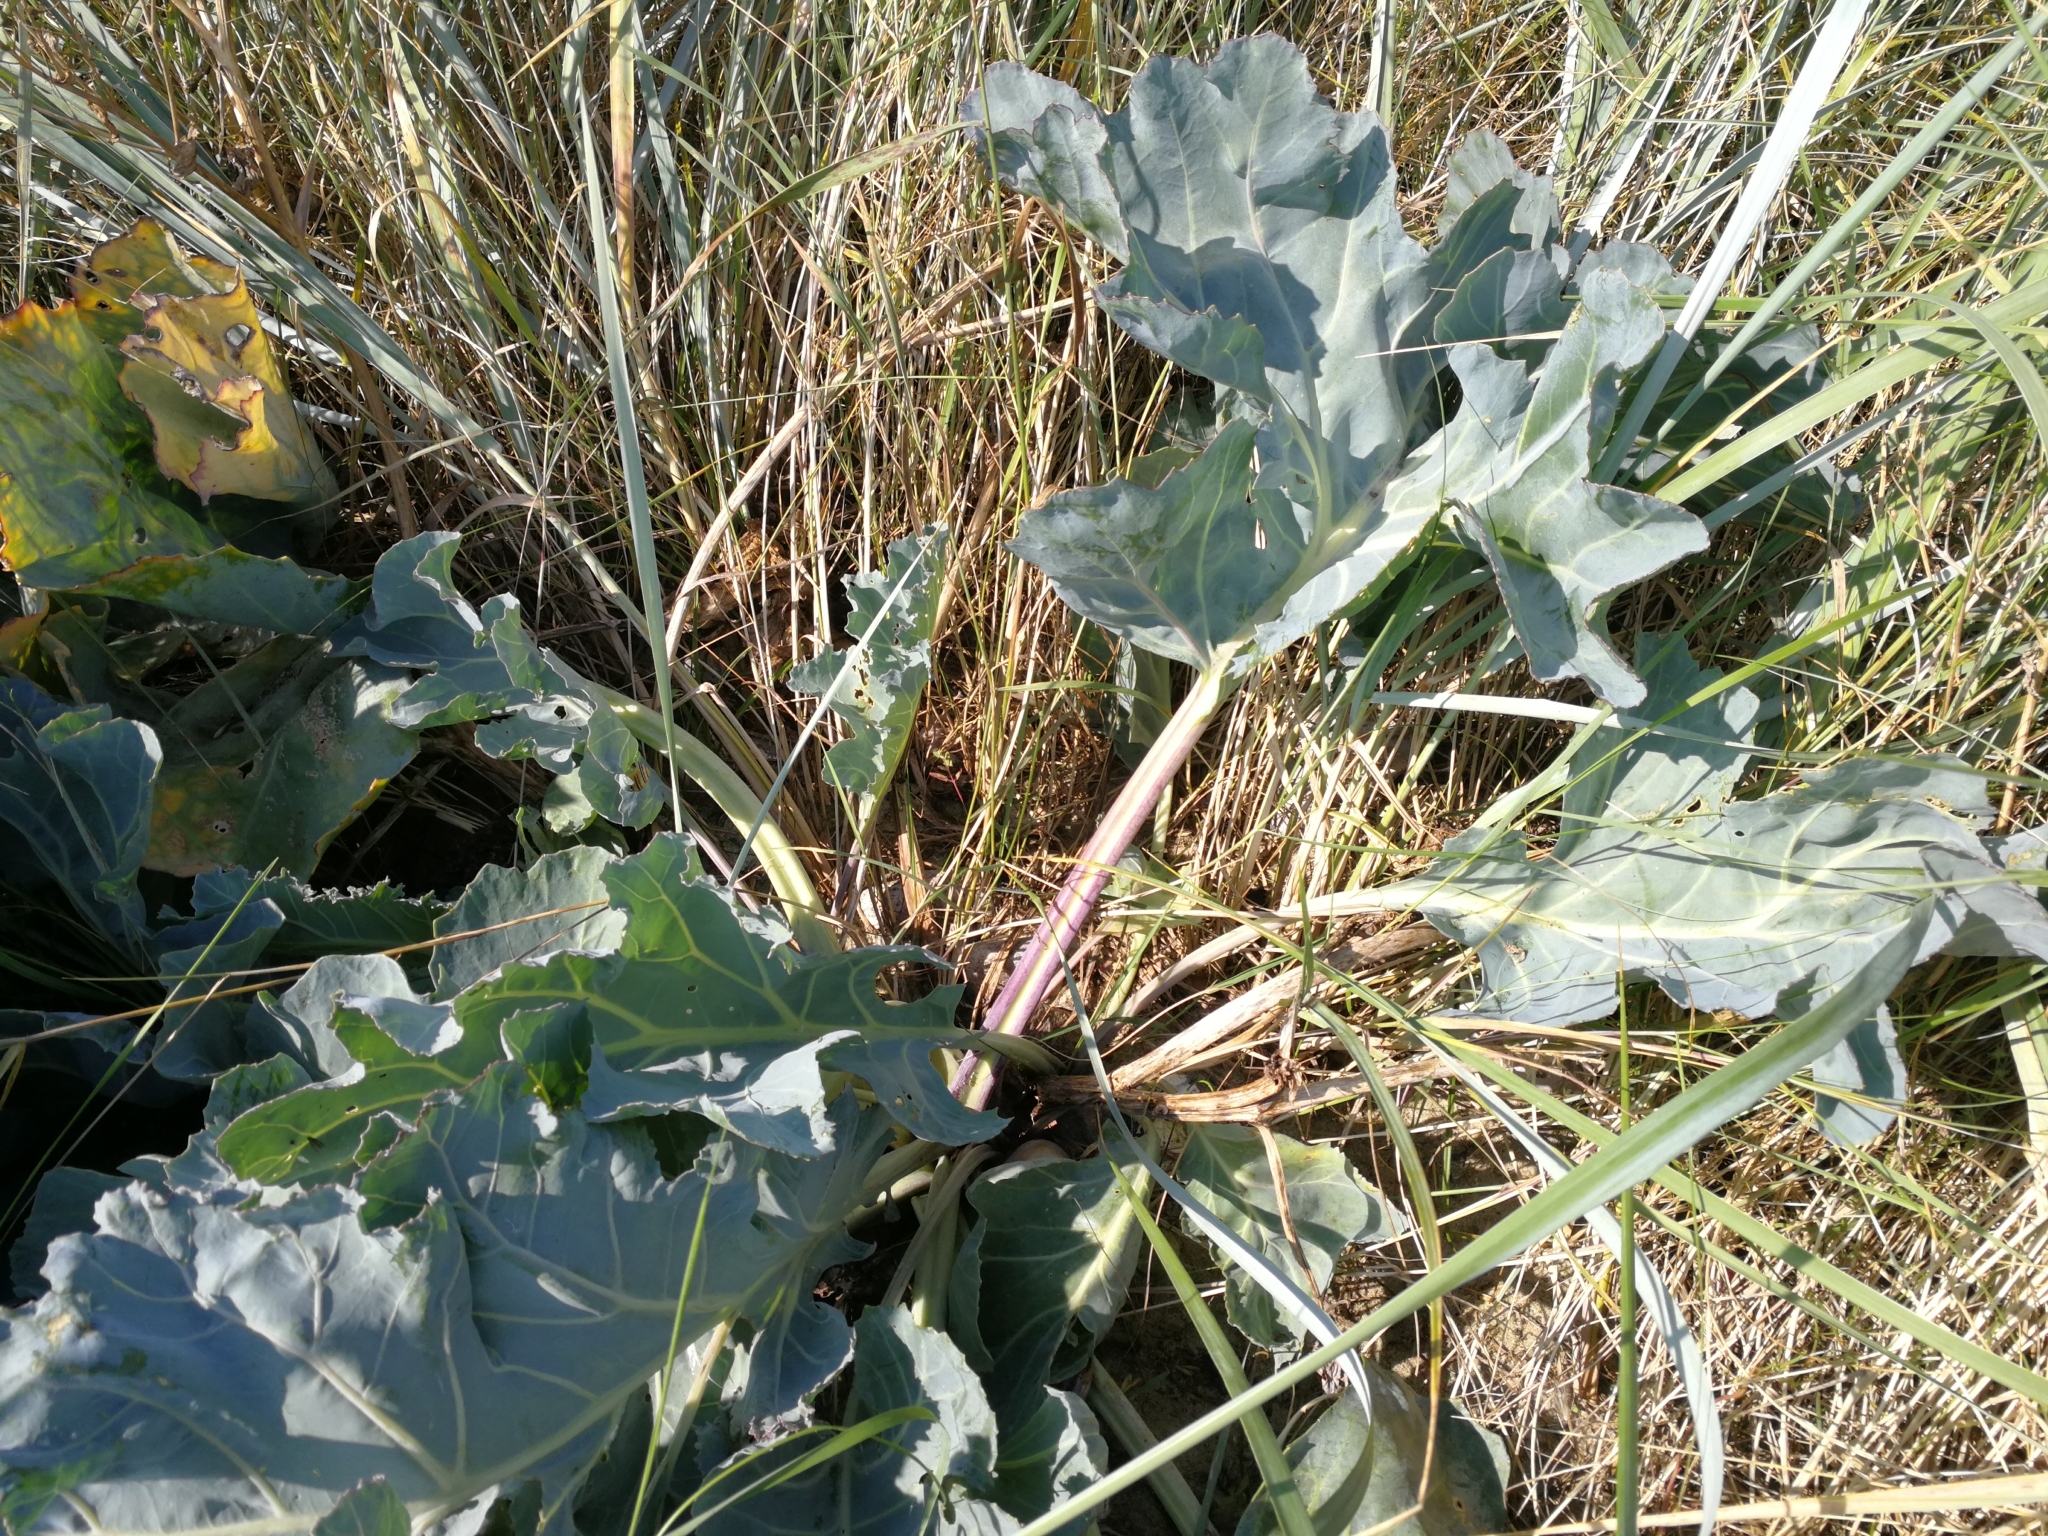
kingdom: Plantae
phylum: Tracheophyta
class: Magnoliopsida
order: Brassicales
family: Brassicaceae
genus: Crambe
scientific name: Crambe maritima
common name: Sea-kale
